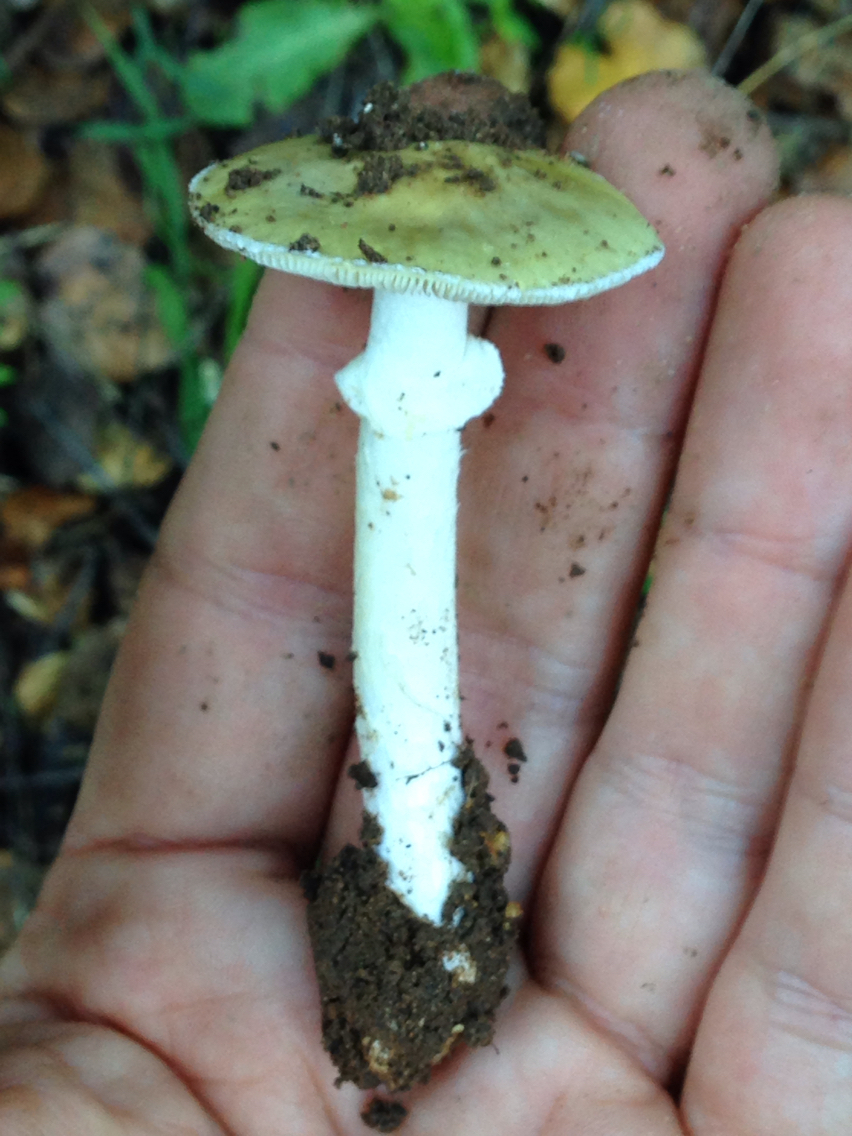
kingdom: Fungi
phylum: Basidiomycota
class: Agaricomycetes
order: Agaricales
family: Amanitaceae
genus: Amanita
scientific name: Amanita phalloides
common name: Death cap
